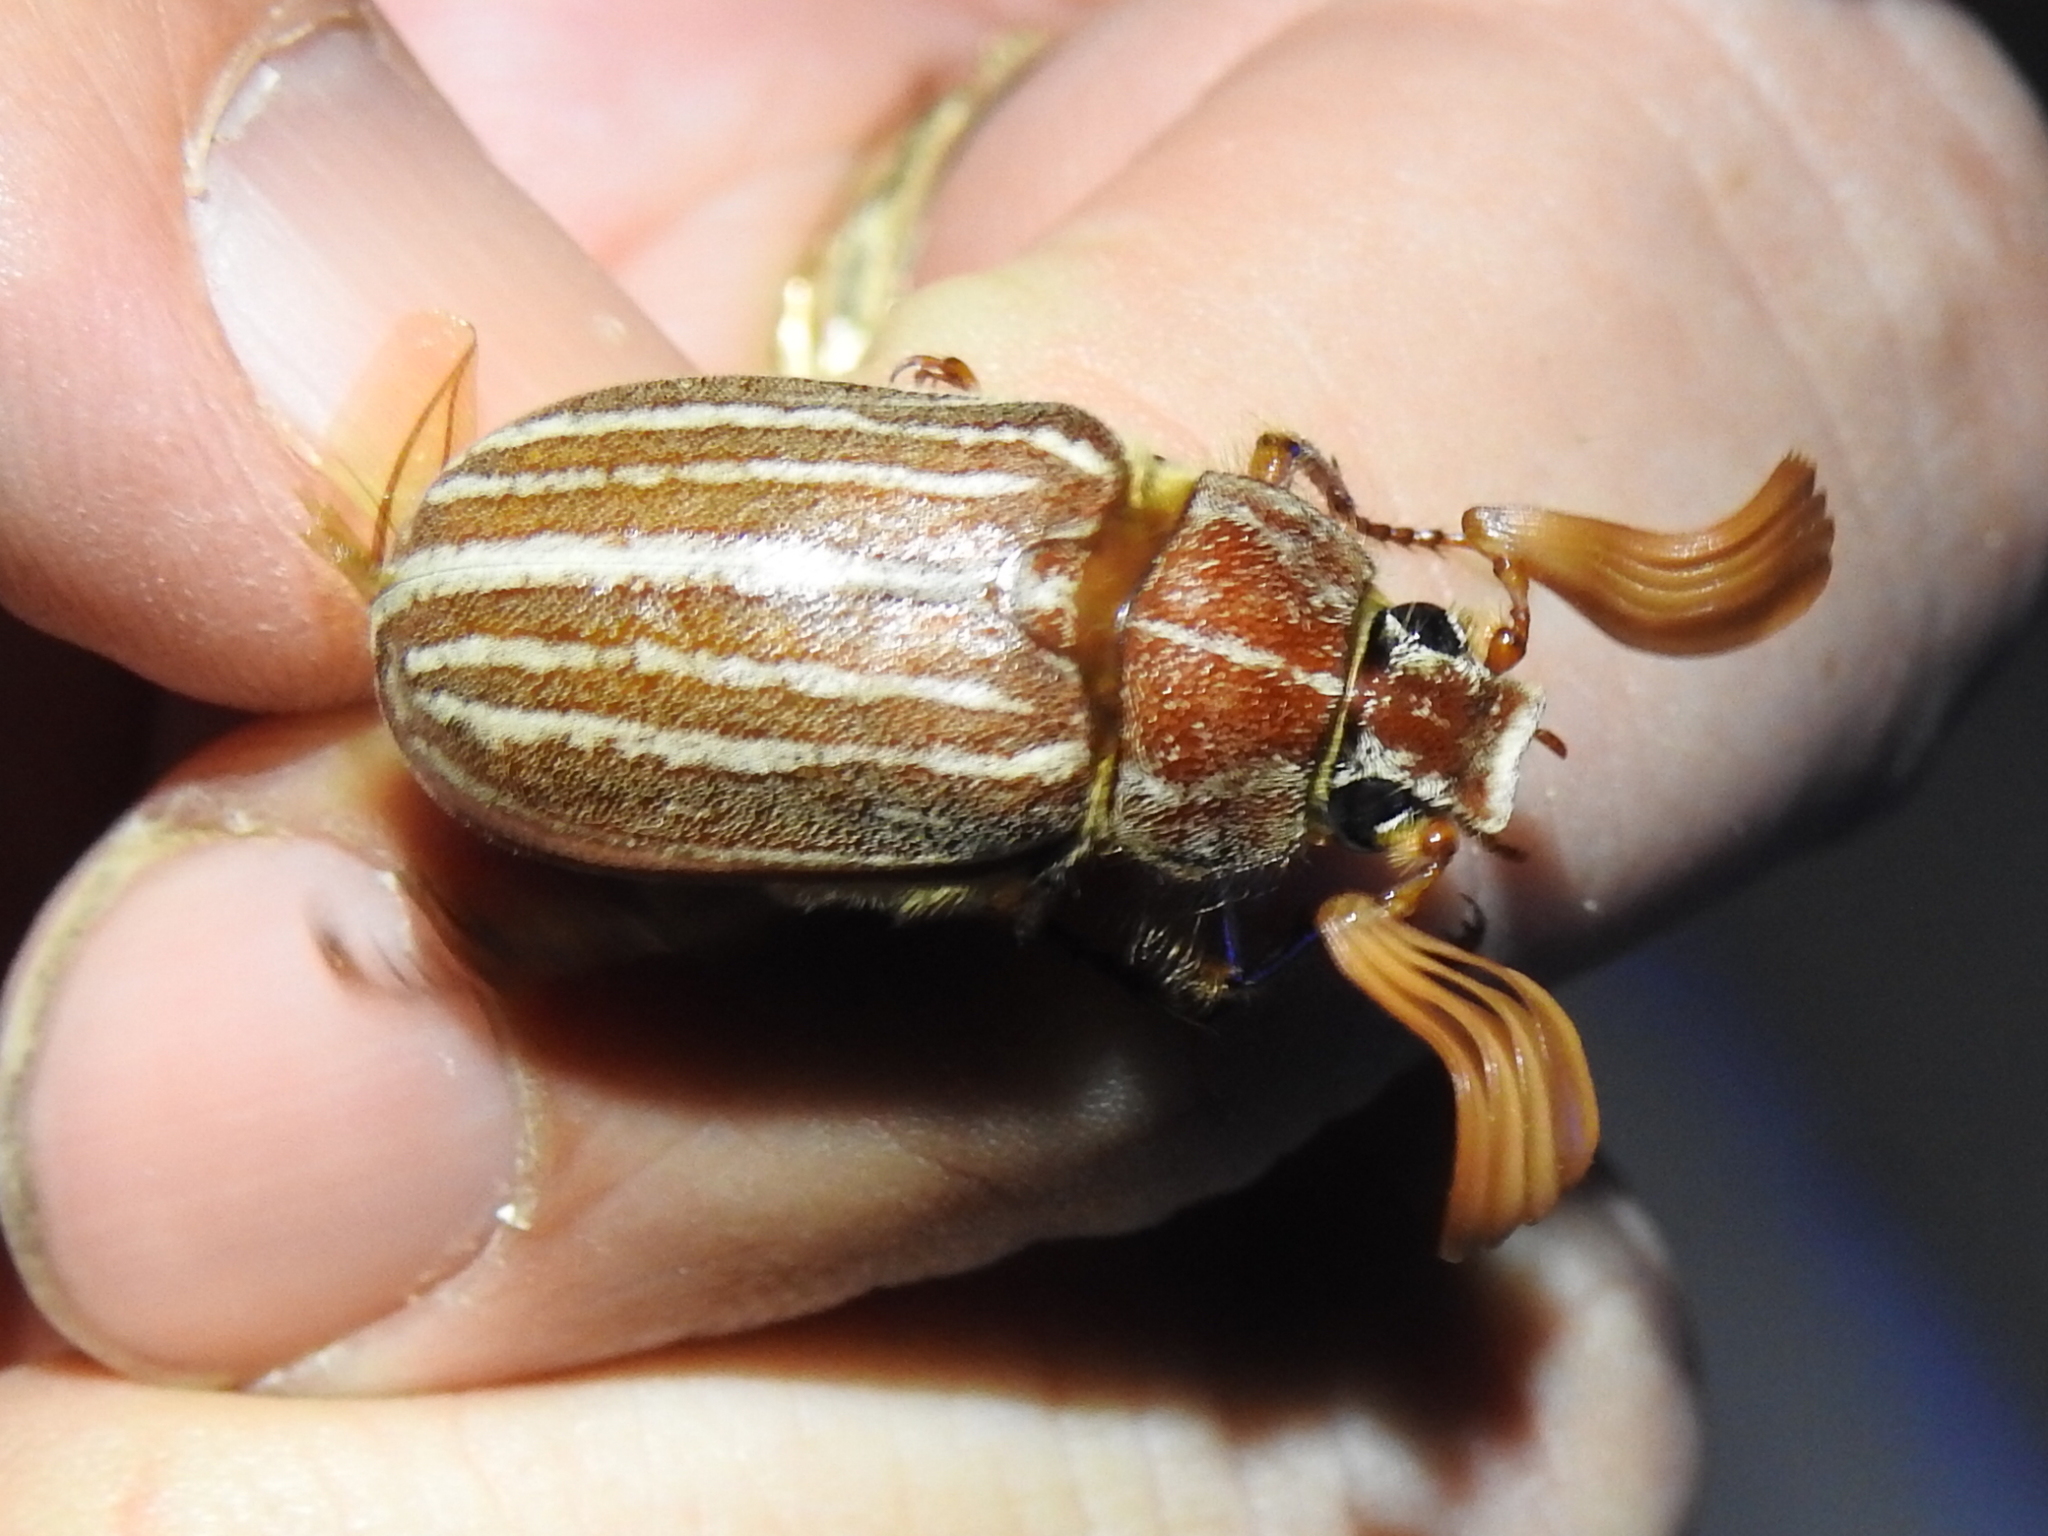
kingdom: Animalia
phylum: Arthropoda
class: Insecta
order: Coleoptera
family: Scarabaeidae
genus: Polyphylla
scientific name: Polyphylla monahansensis
